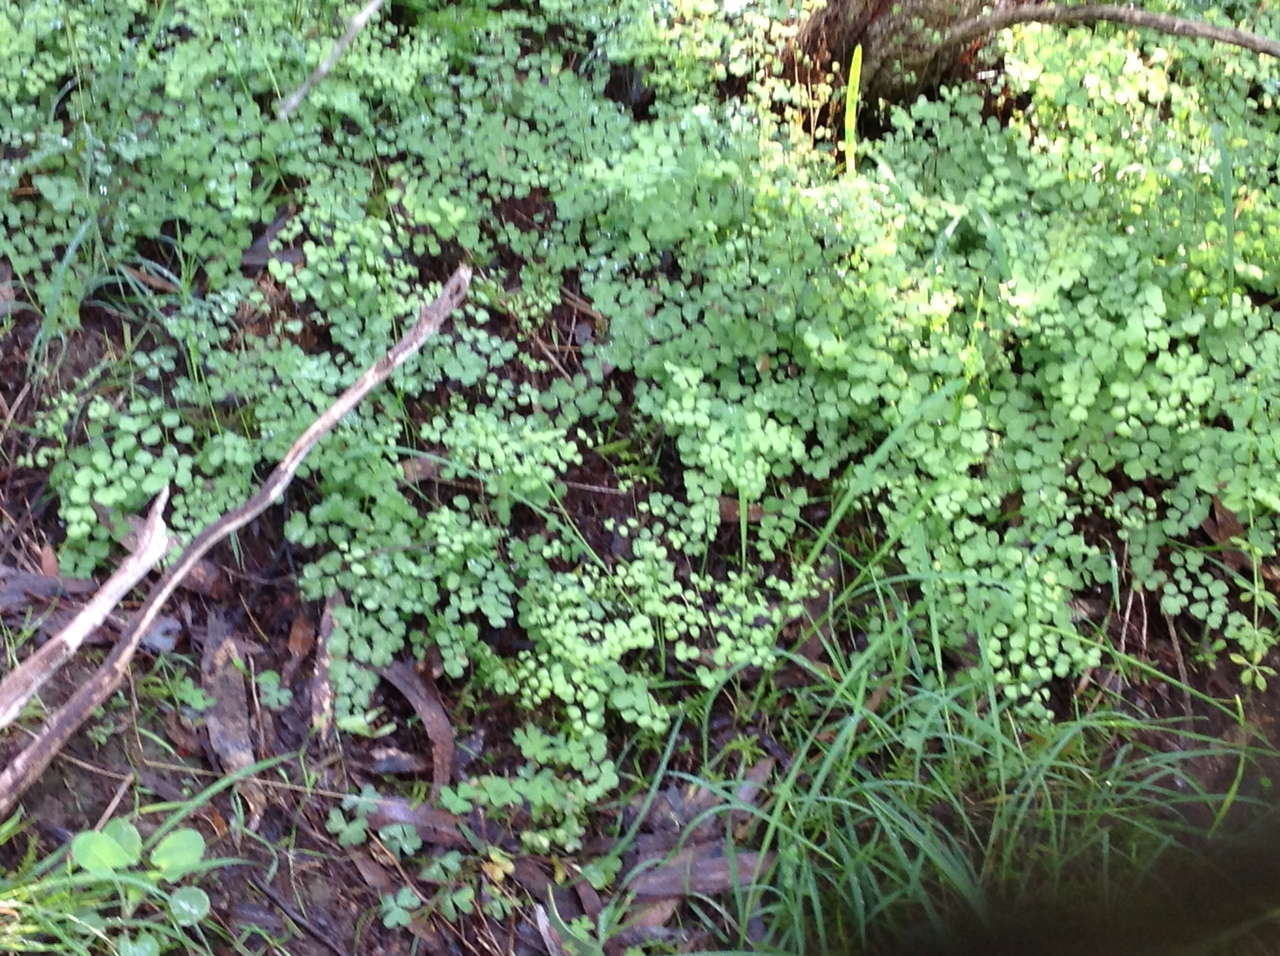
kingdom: Plantae
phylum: Tracheophyta
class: Polypodiopsida
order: Polypodiales
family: Pteridaceae
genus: Adiantum
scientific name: Adiantum aethiopicum
